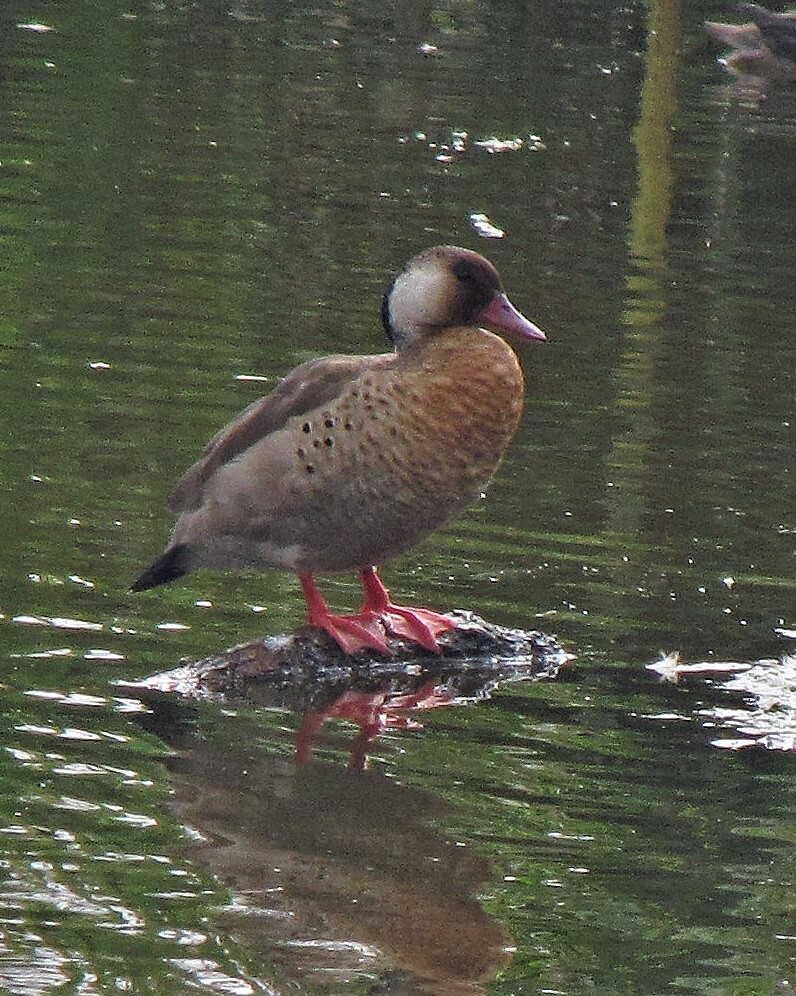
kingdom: Animalia
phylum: Chordata
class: Aves
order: Anseriformes
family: Anatidae
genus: Amazonetta
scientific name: Amazonetta brasiliensis
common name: Brazilian teal
